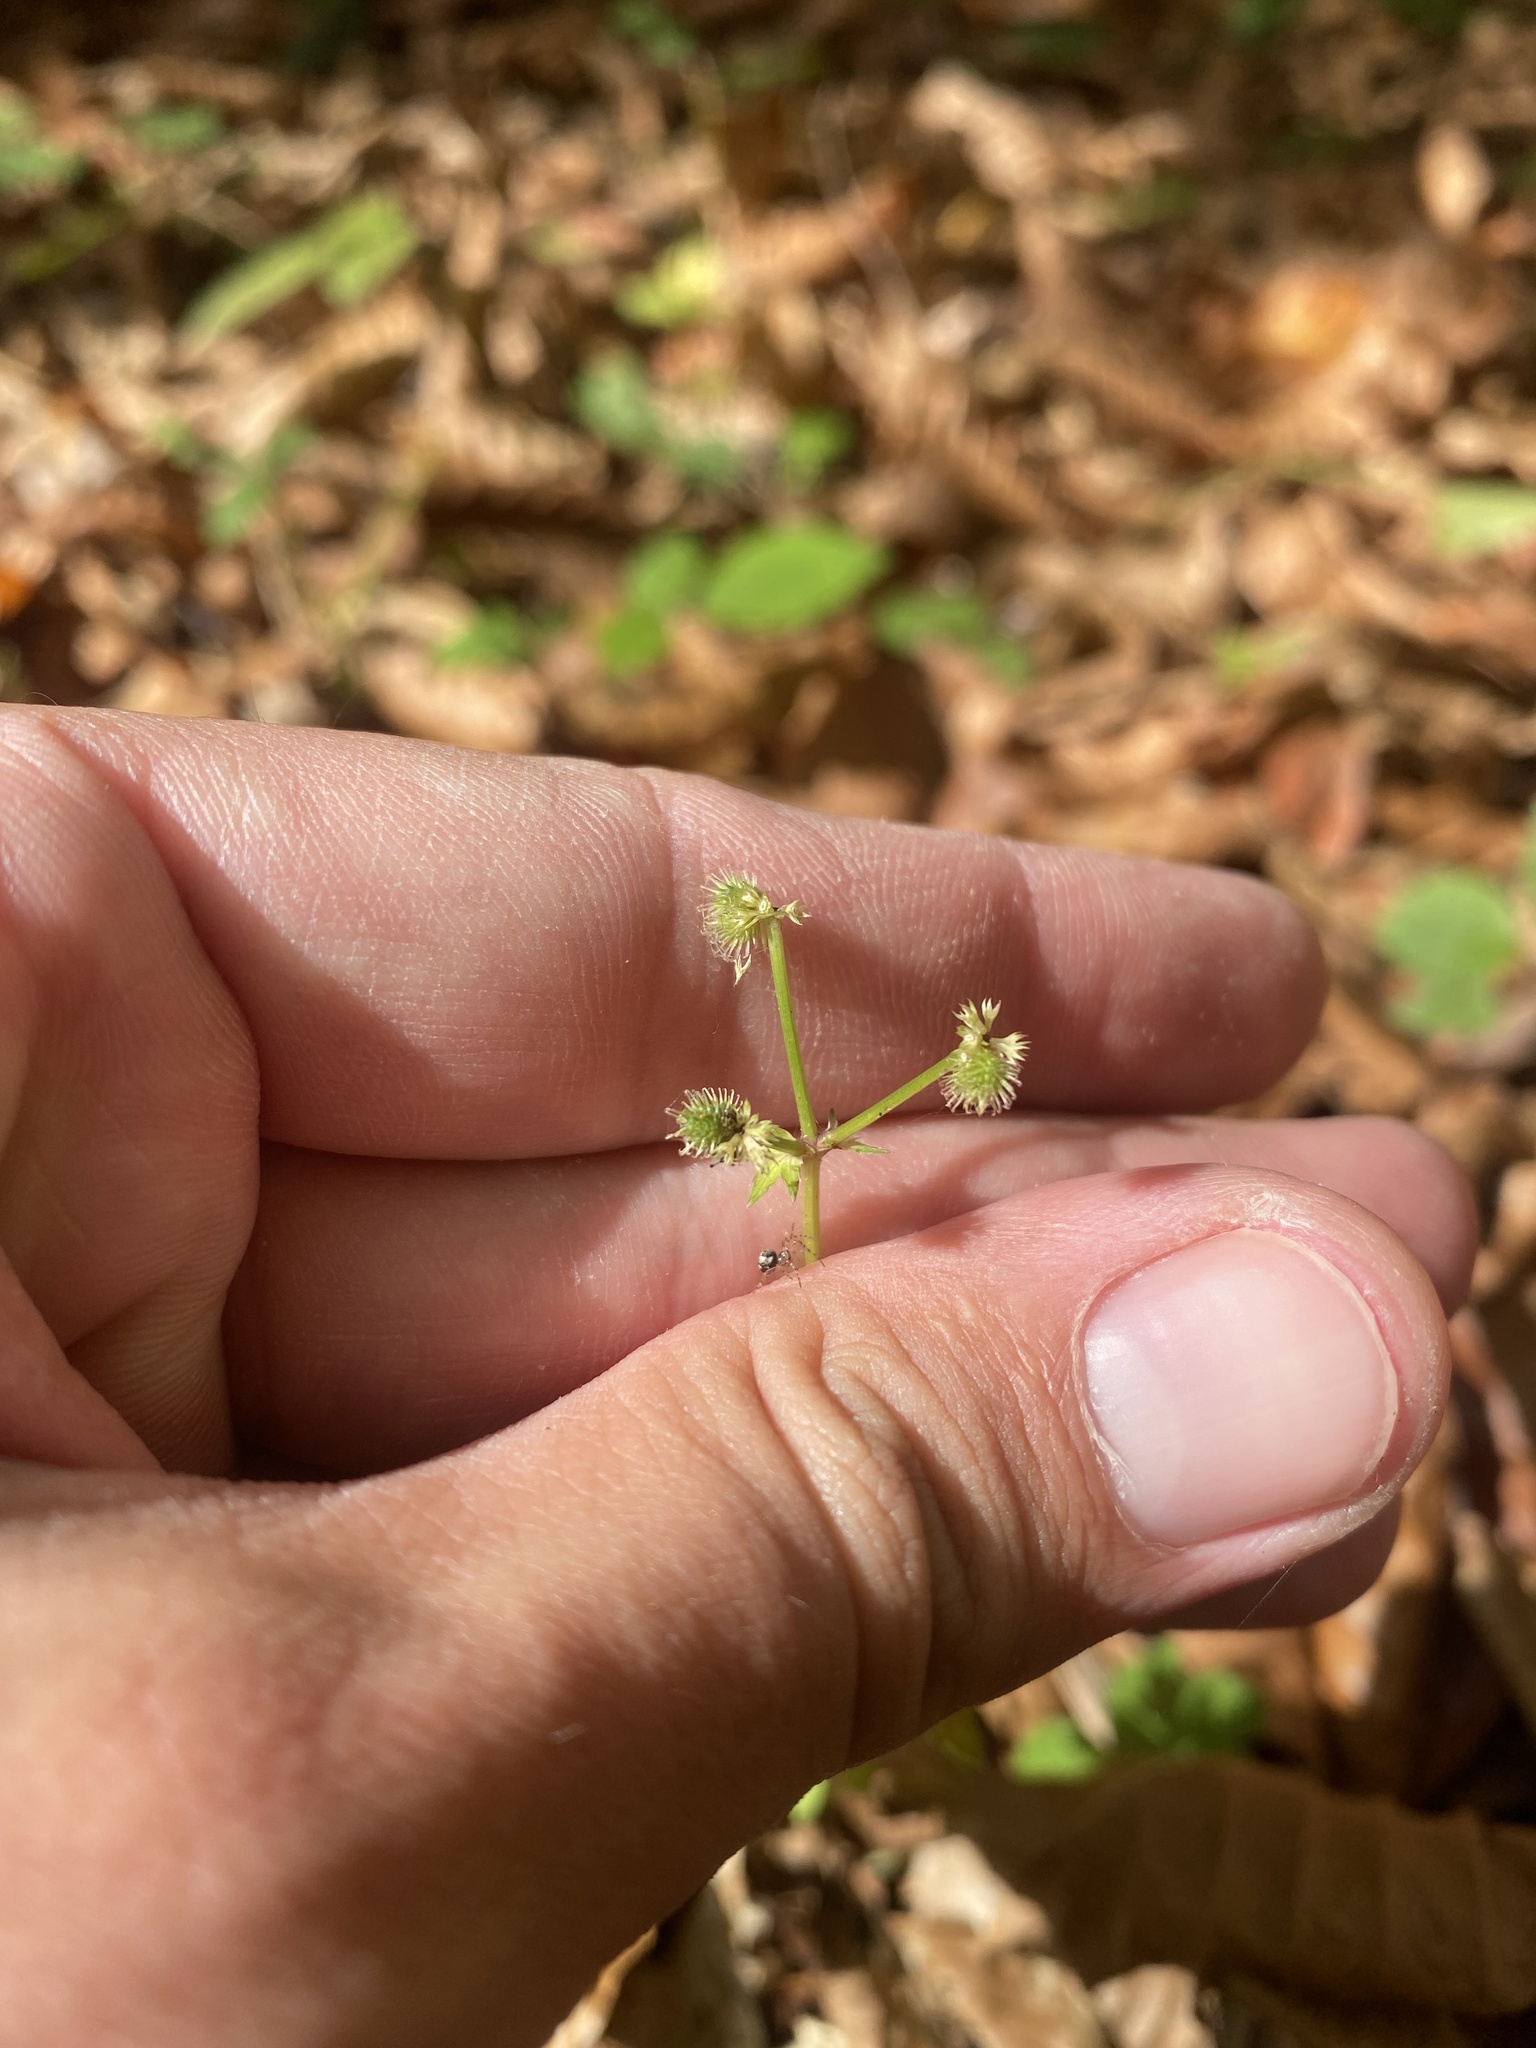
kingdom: Plantae
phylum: Tracheophyta
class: Magnoliopsida
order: Apiales
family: Apiaceae
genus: Sanicula
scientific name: Sanicula europaea
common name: Sanicle
